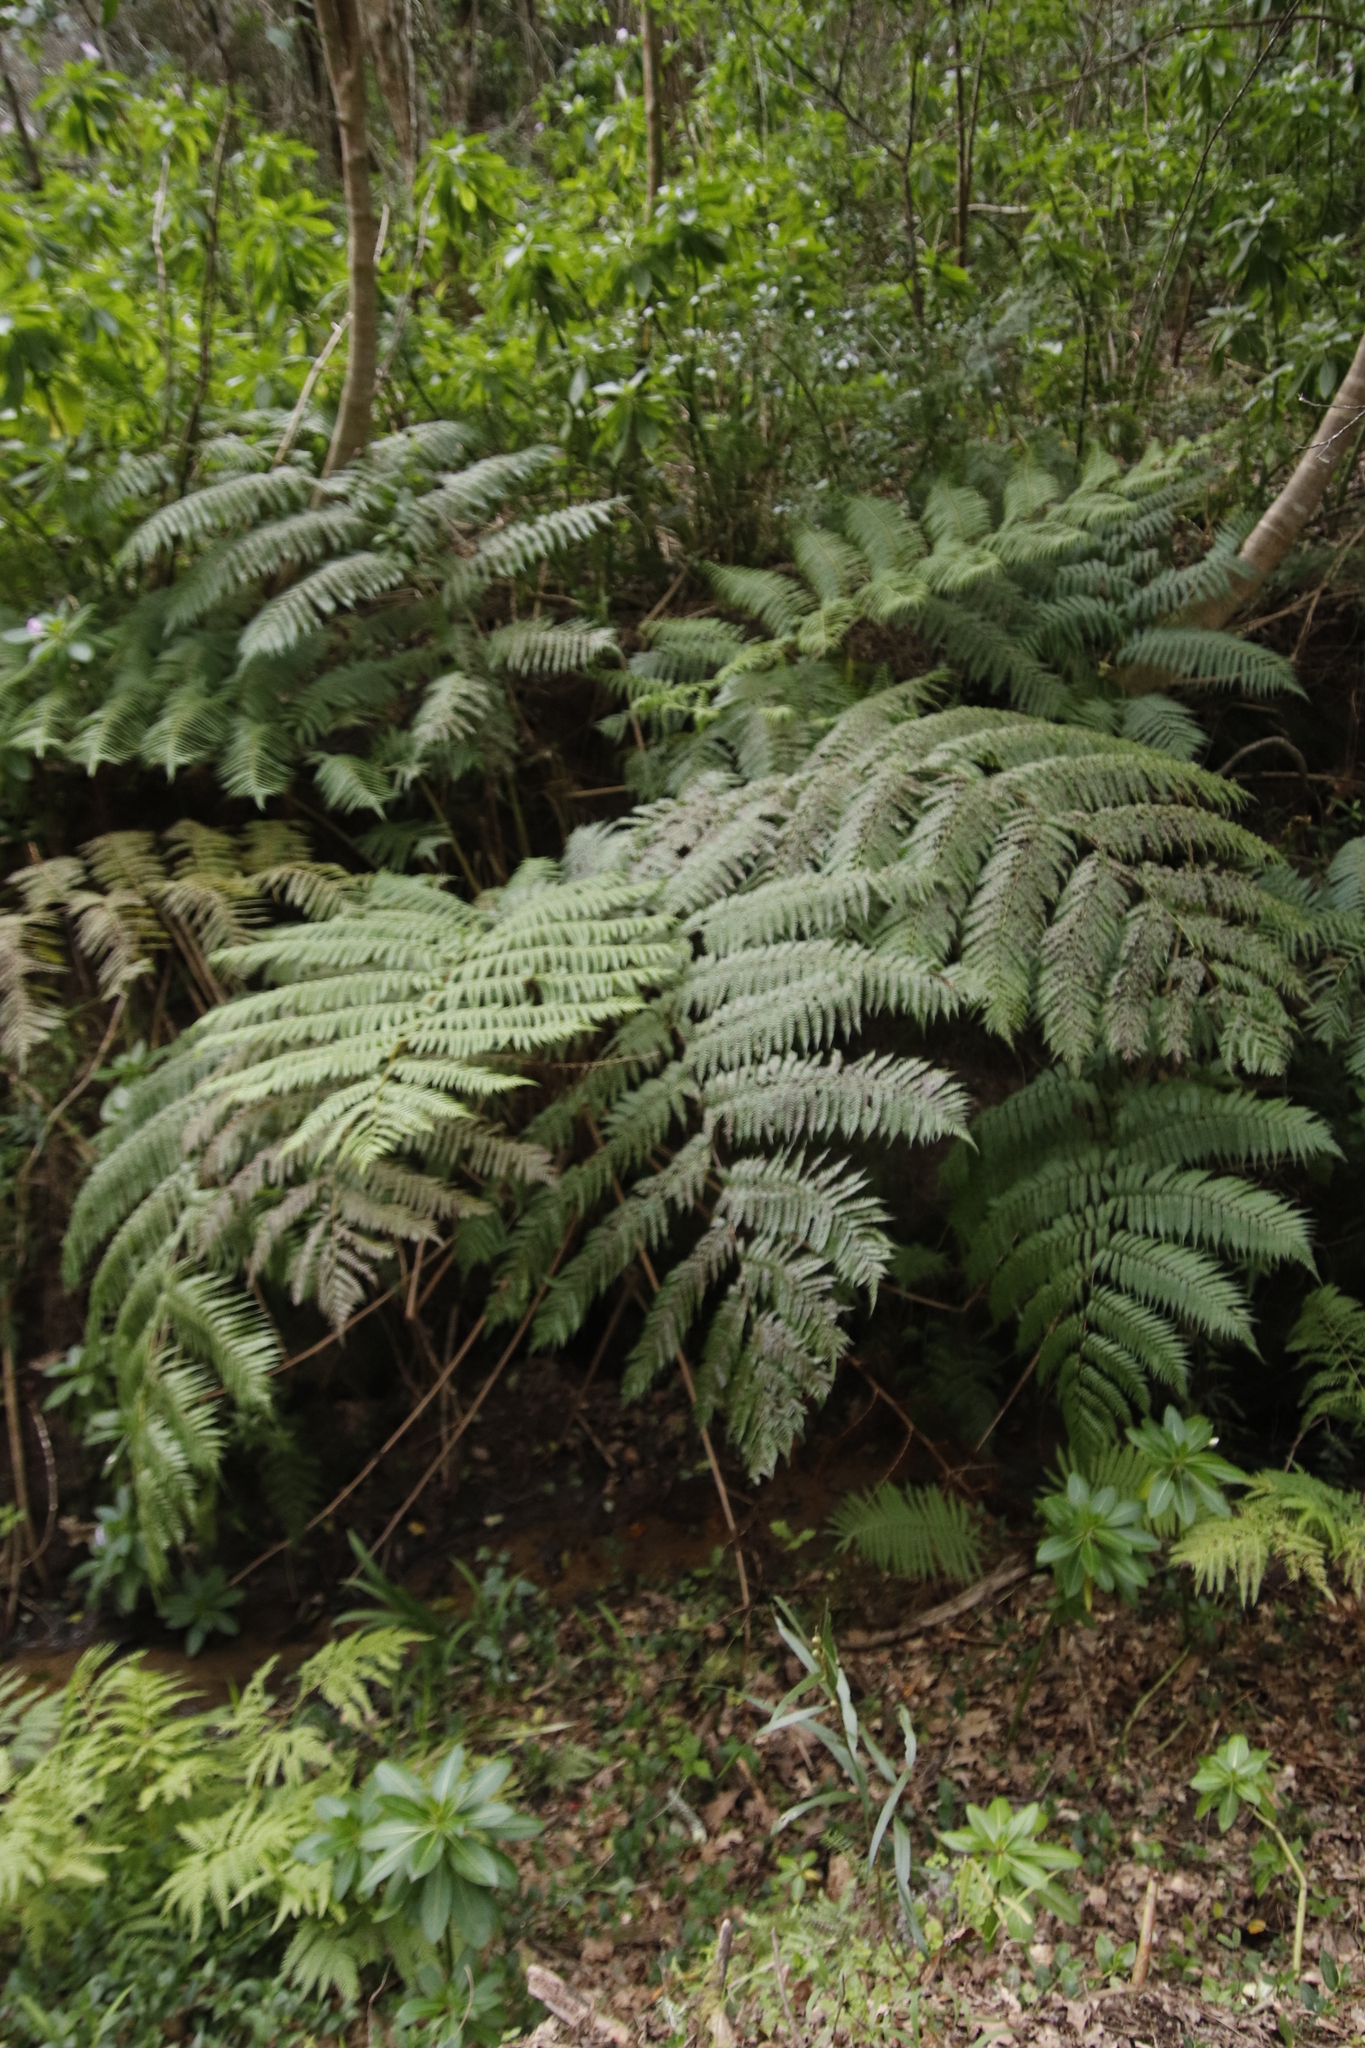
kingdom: Plantae
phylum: Tracheophyta
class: Polypodiopsida
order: Cyatheales
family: Cyatheaceae
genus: Sphaeropteris
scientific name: Sphaeropteris cooperi
